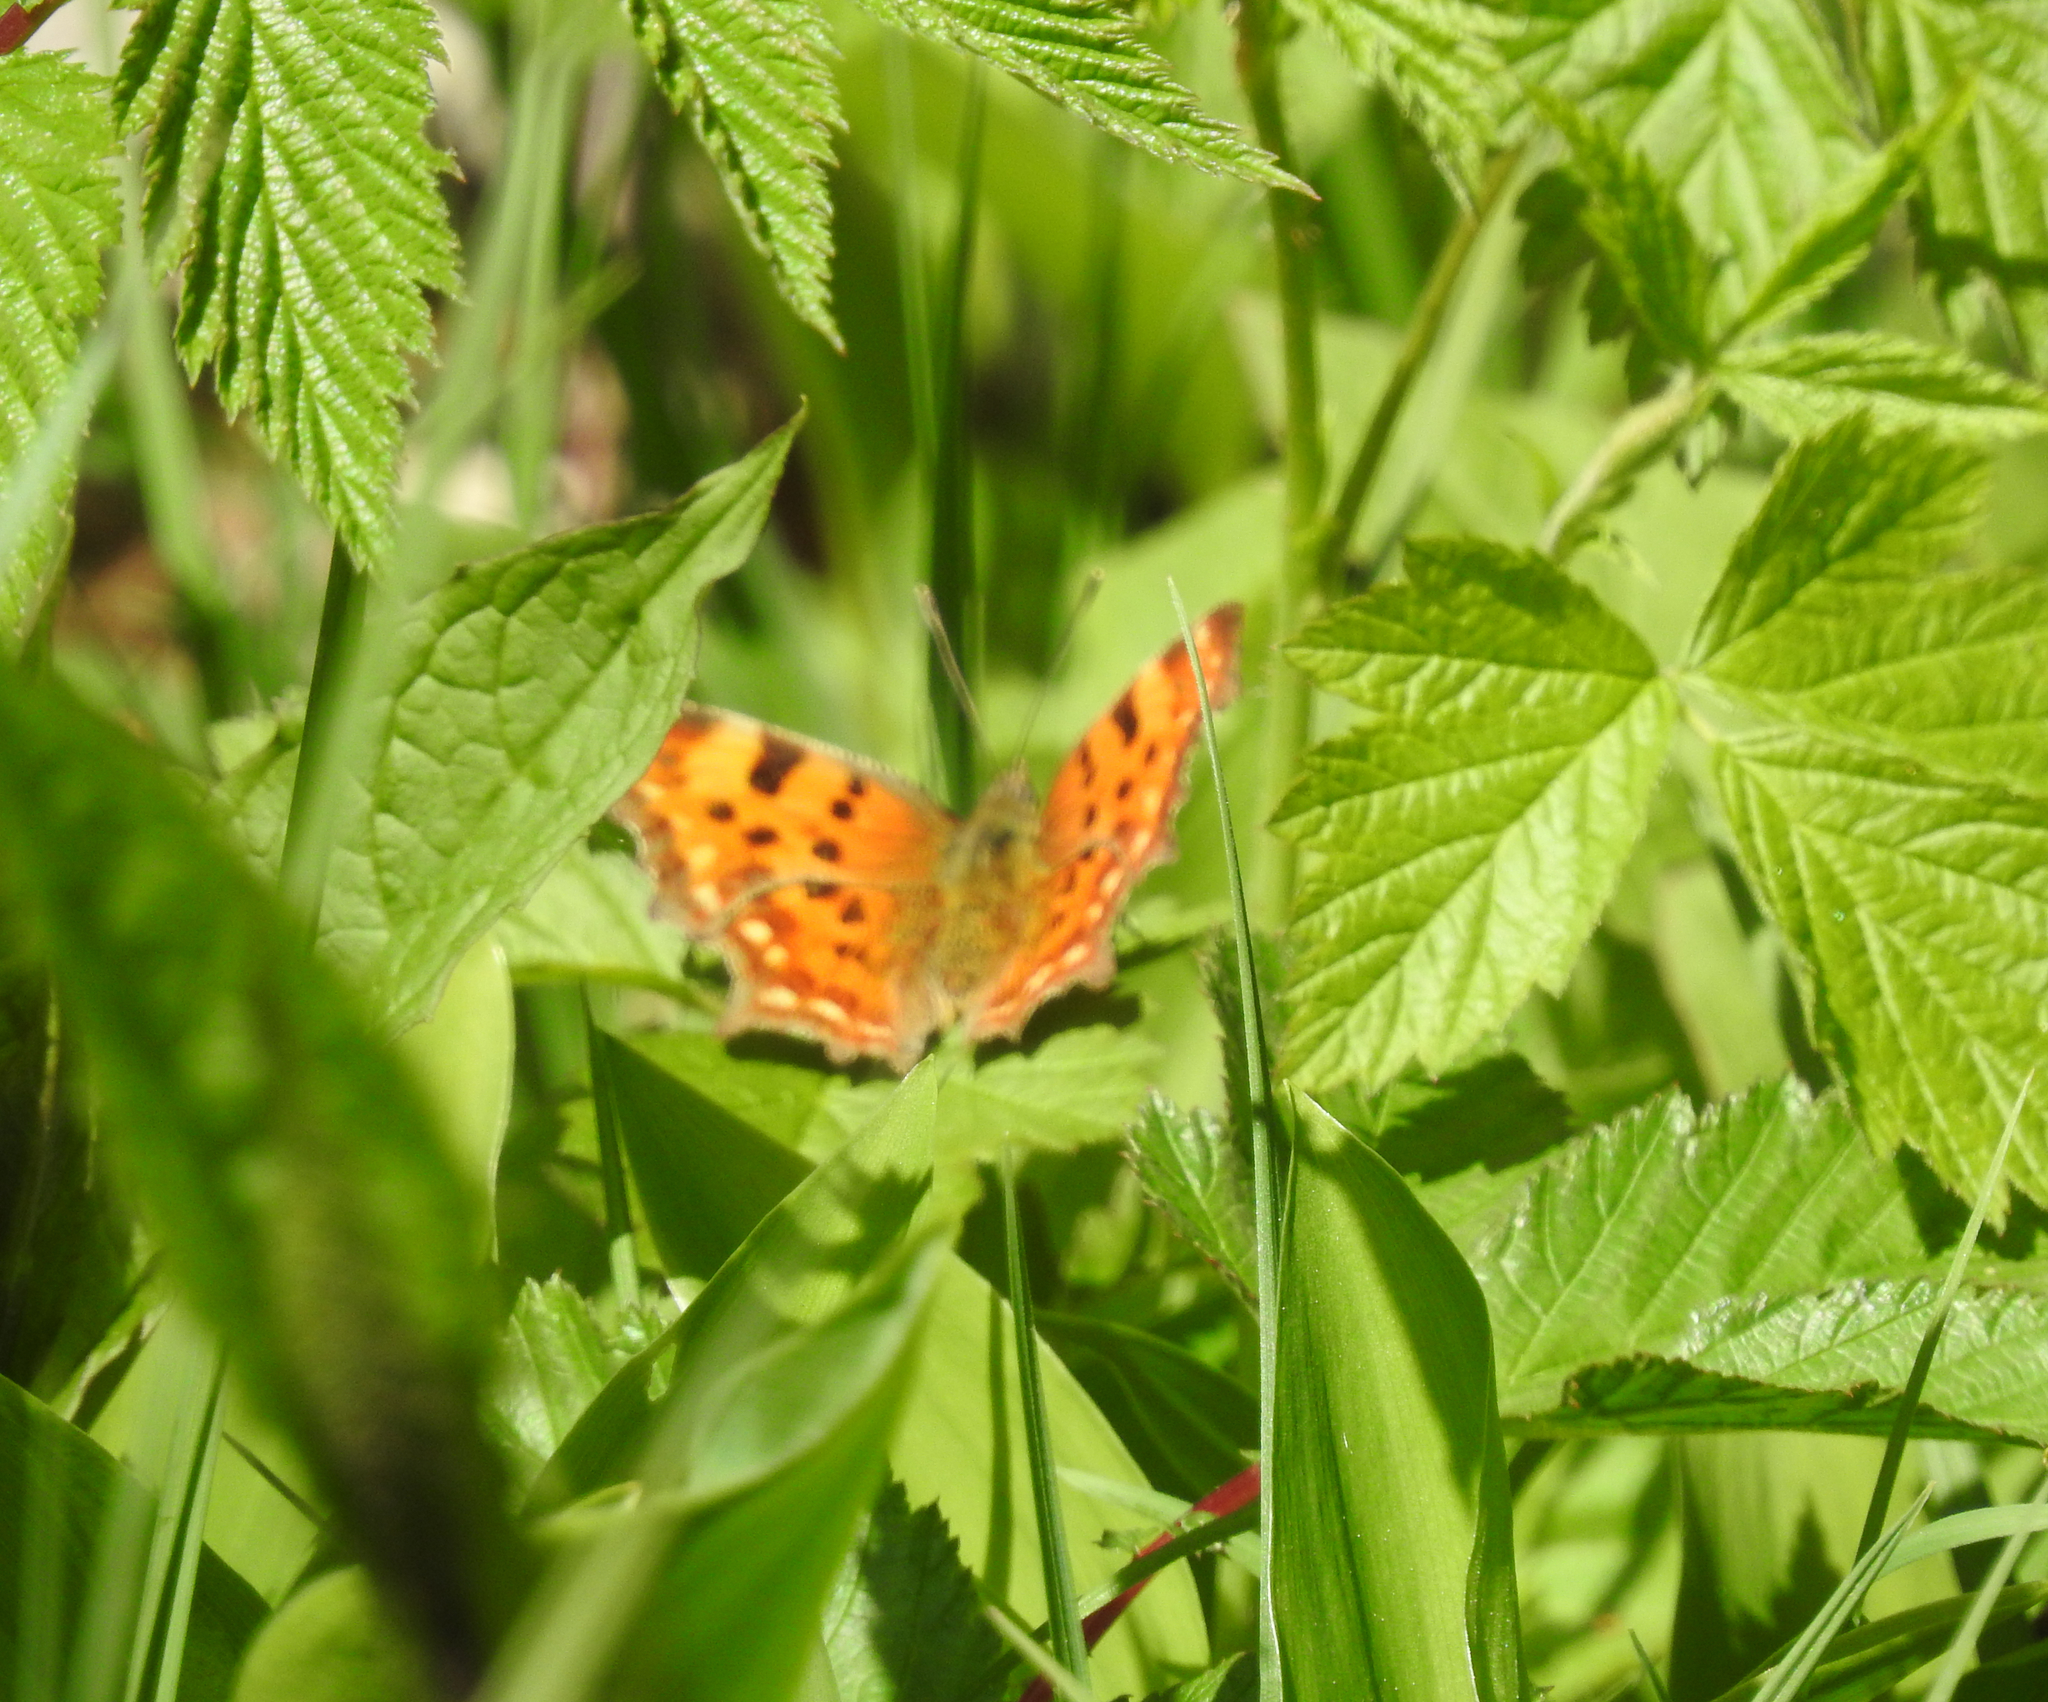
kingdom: Animalia
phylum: Arthropoda
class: Insecta
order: Lepidoptera
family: Nymphalidae
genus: Polygonia
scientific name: Polygonia c-album
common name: Comma
